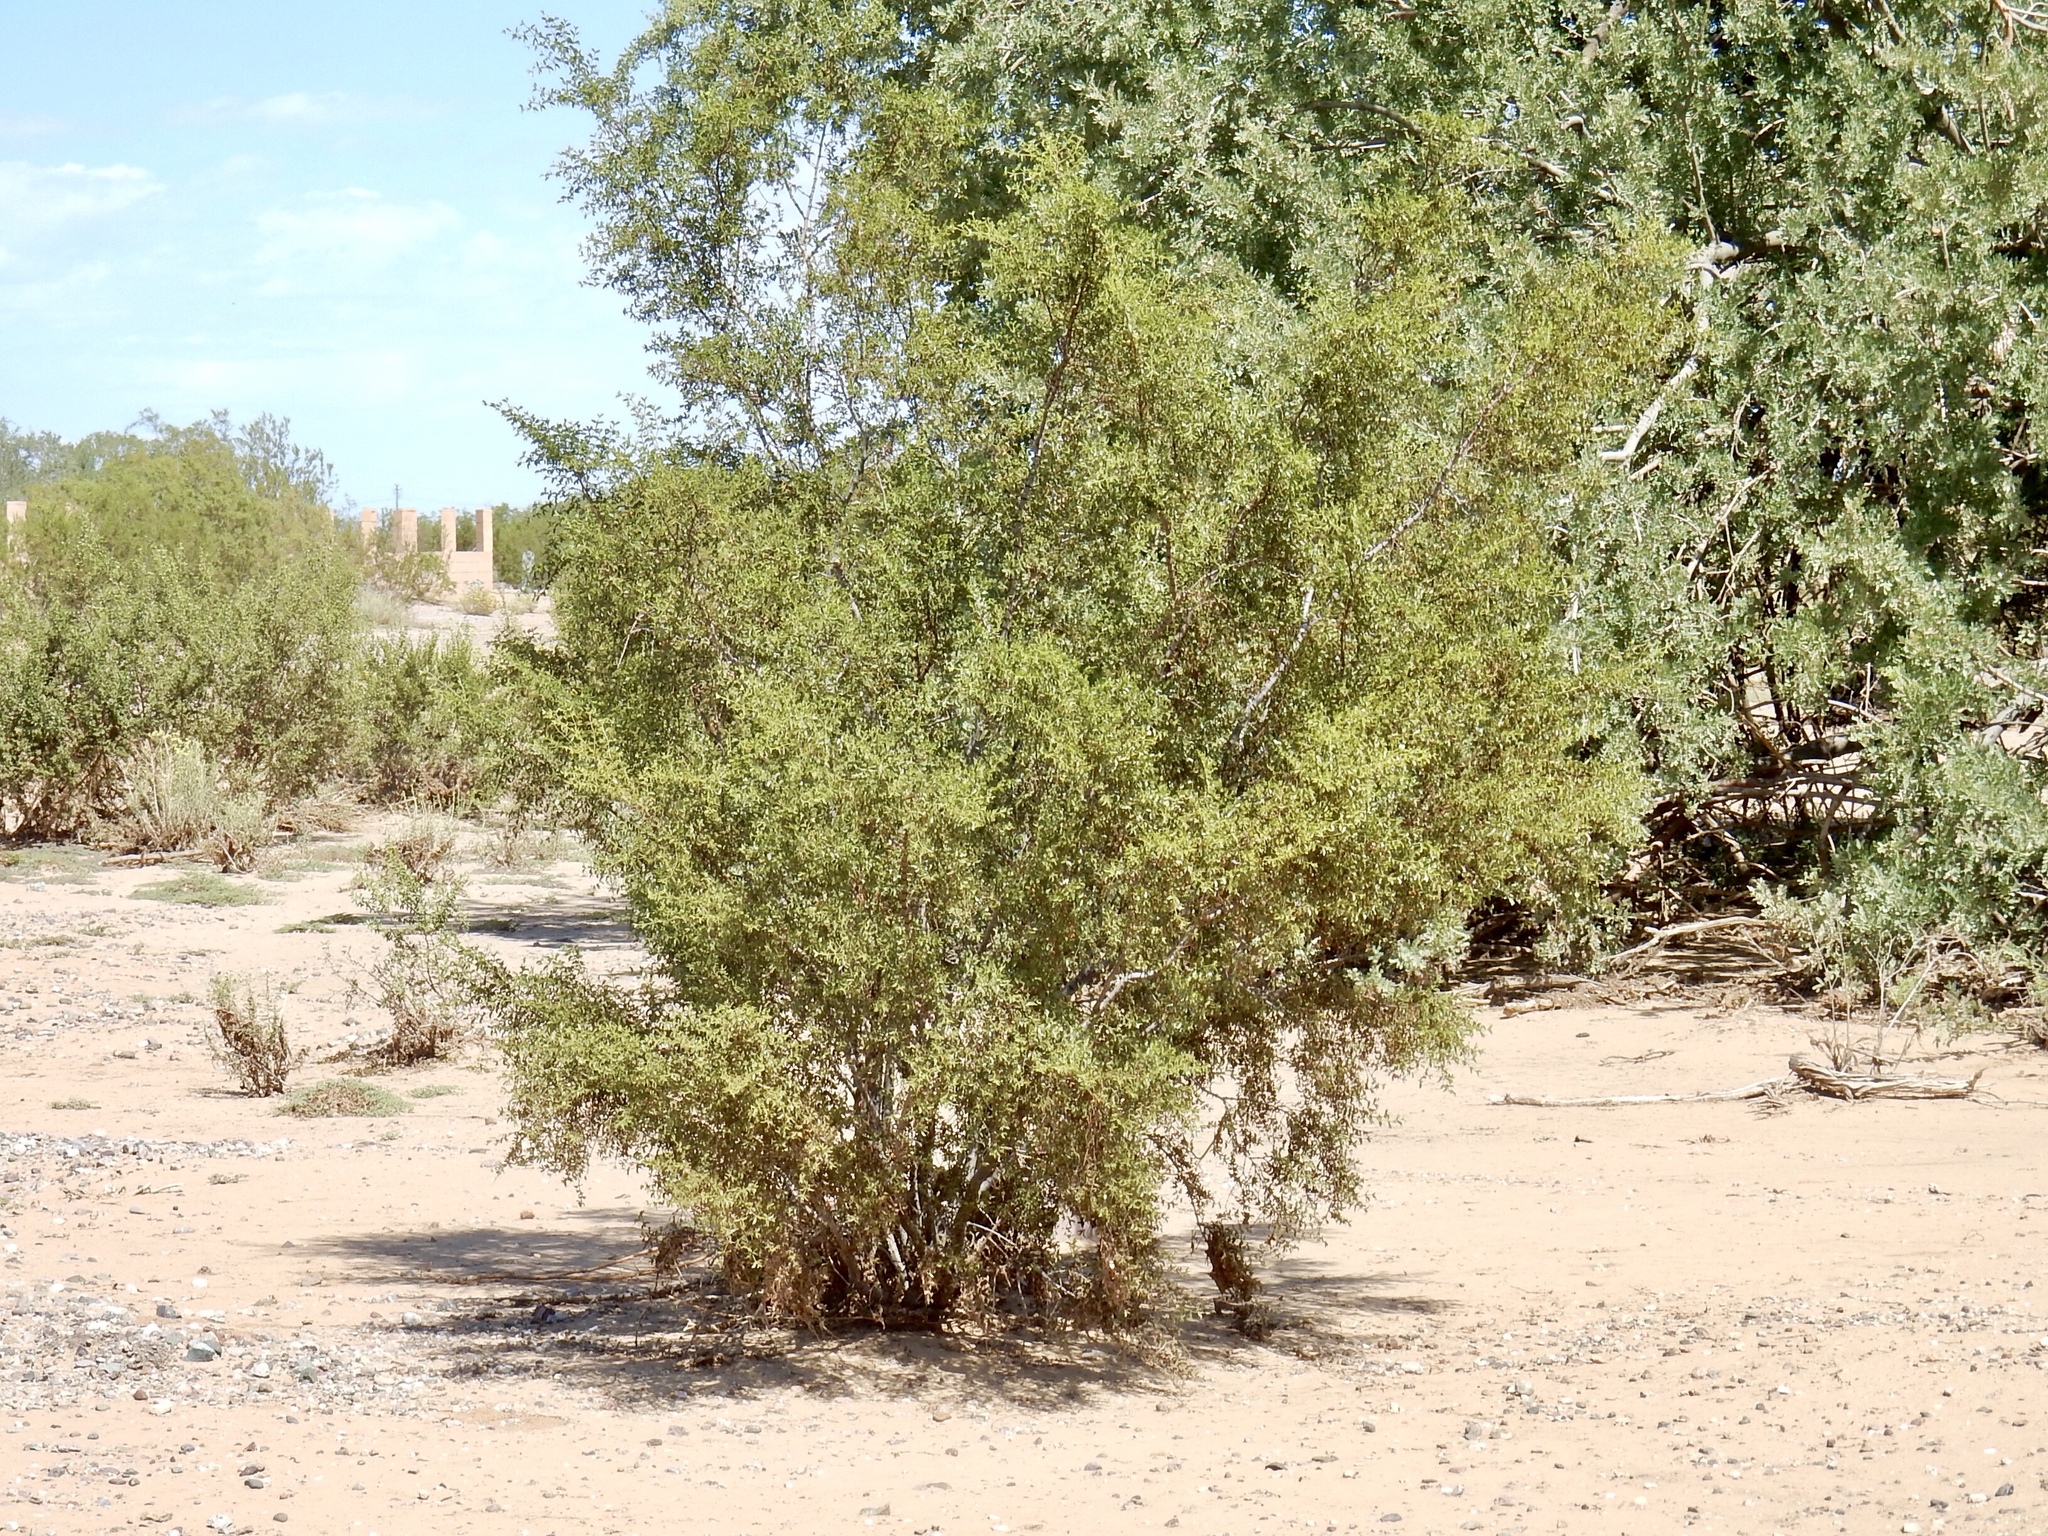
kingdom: Plantae
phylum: Tracheophyta
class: Magnoliopsida
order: Zygophyllales
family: Zygophyllaceae
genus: Larrea
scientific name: Larrea tridentata
